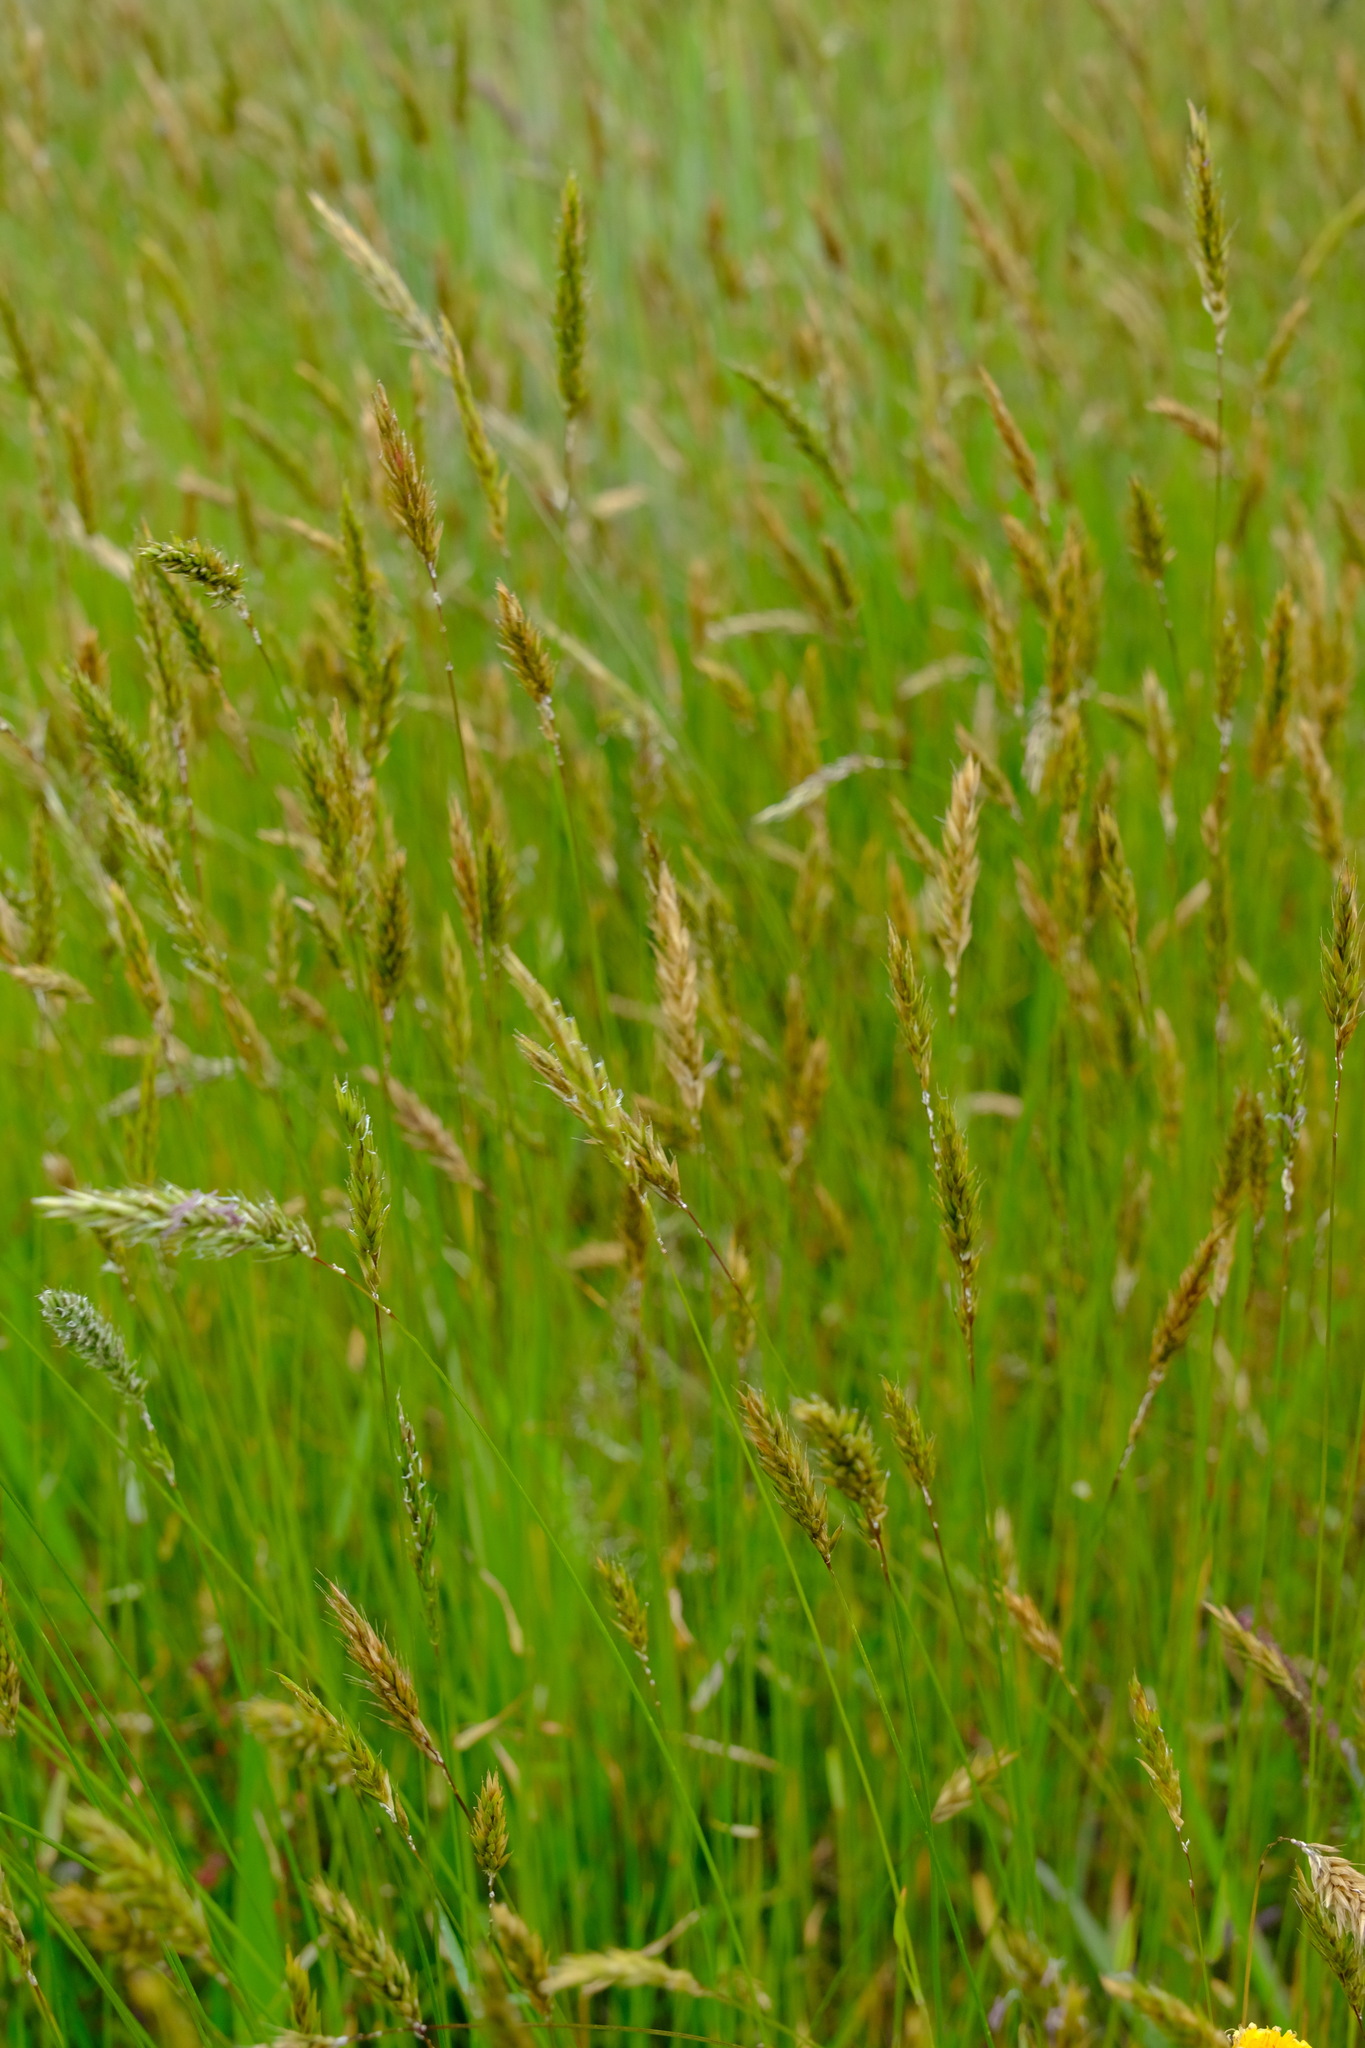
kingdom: Plantae
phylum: Tracheophyta
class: Liliopsida
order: Poales
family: Poaceae
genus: Anthoxanthum
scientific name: Anthoxanthum odoratum
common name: Sweet vernalgrass
